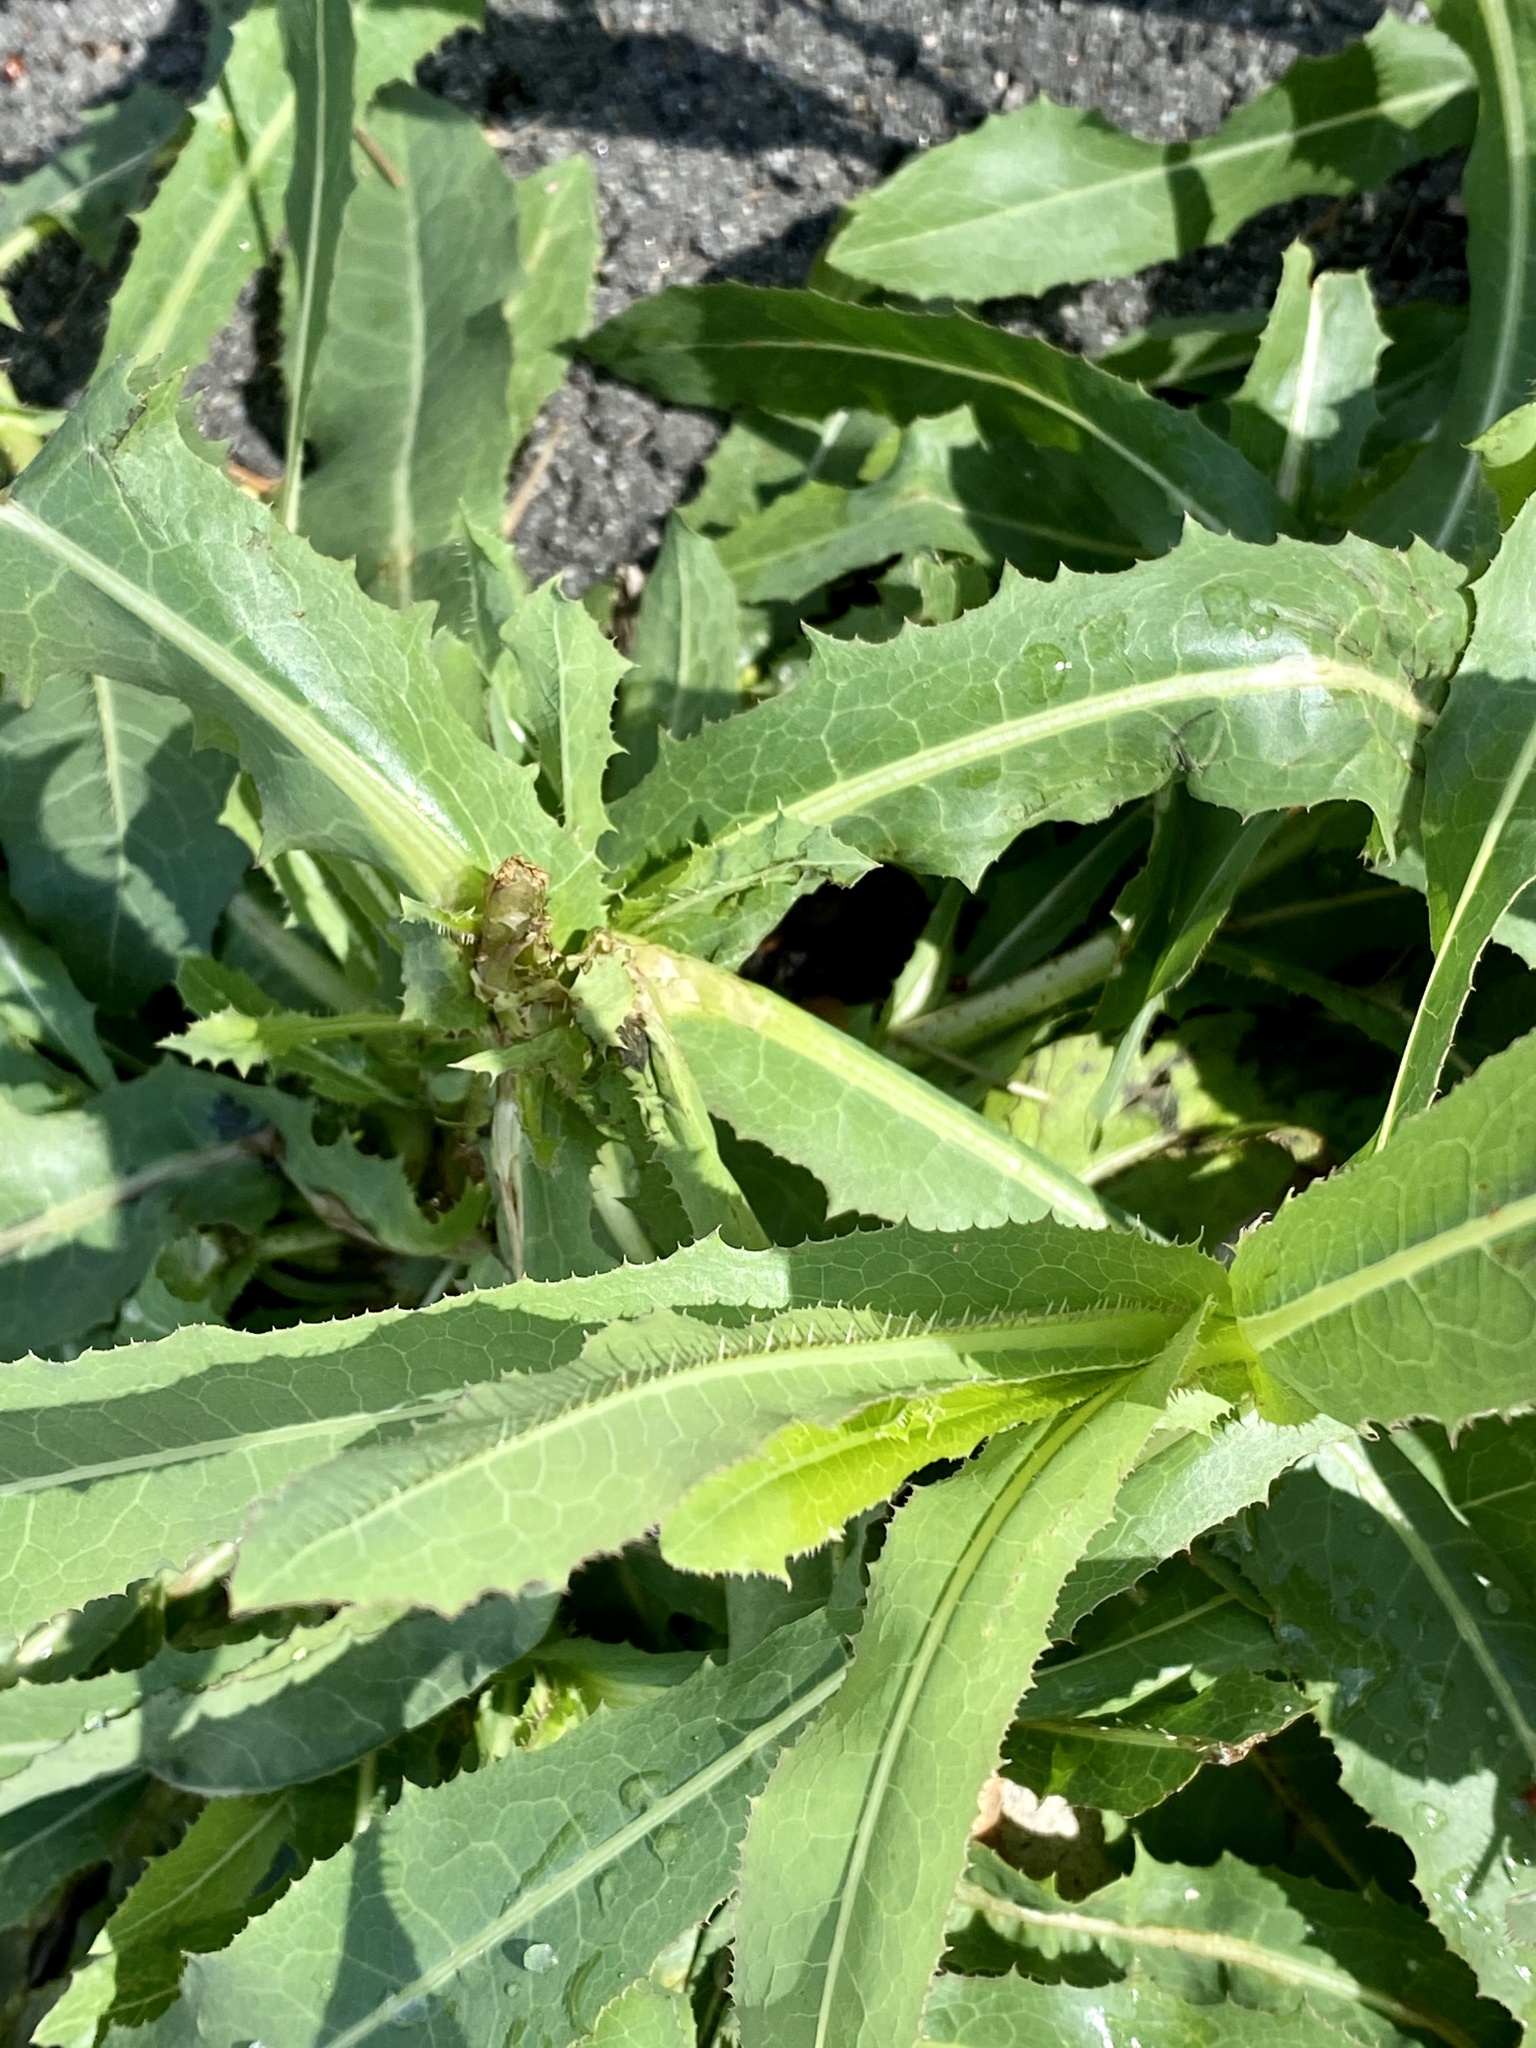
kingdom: Plantae
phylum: Tracheophyta
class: Magnoliopsida
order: Asterales
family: Asteraceae
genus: Lactuca
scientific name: Lactuca serriola
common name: Prickly lettuce
